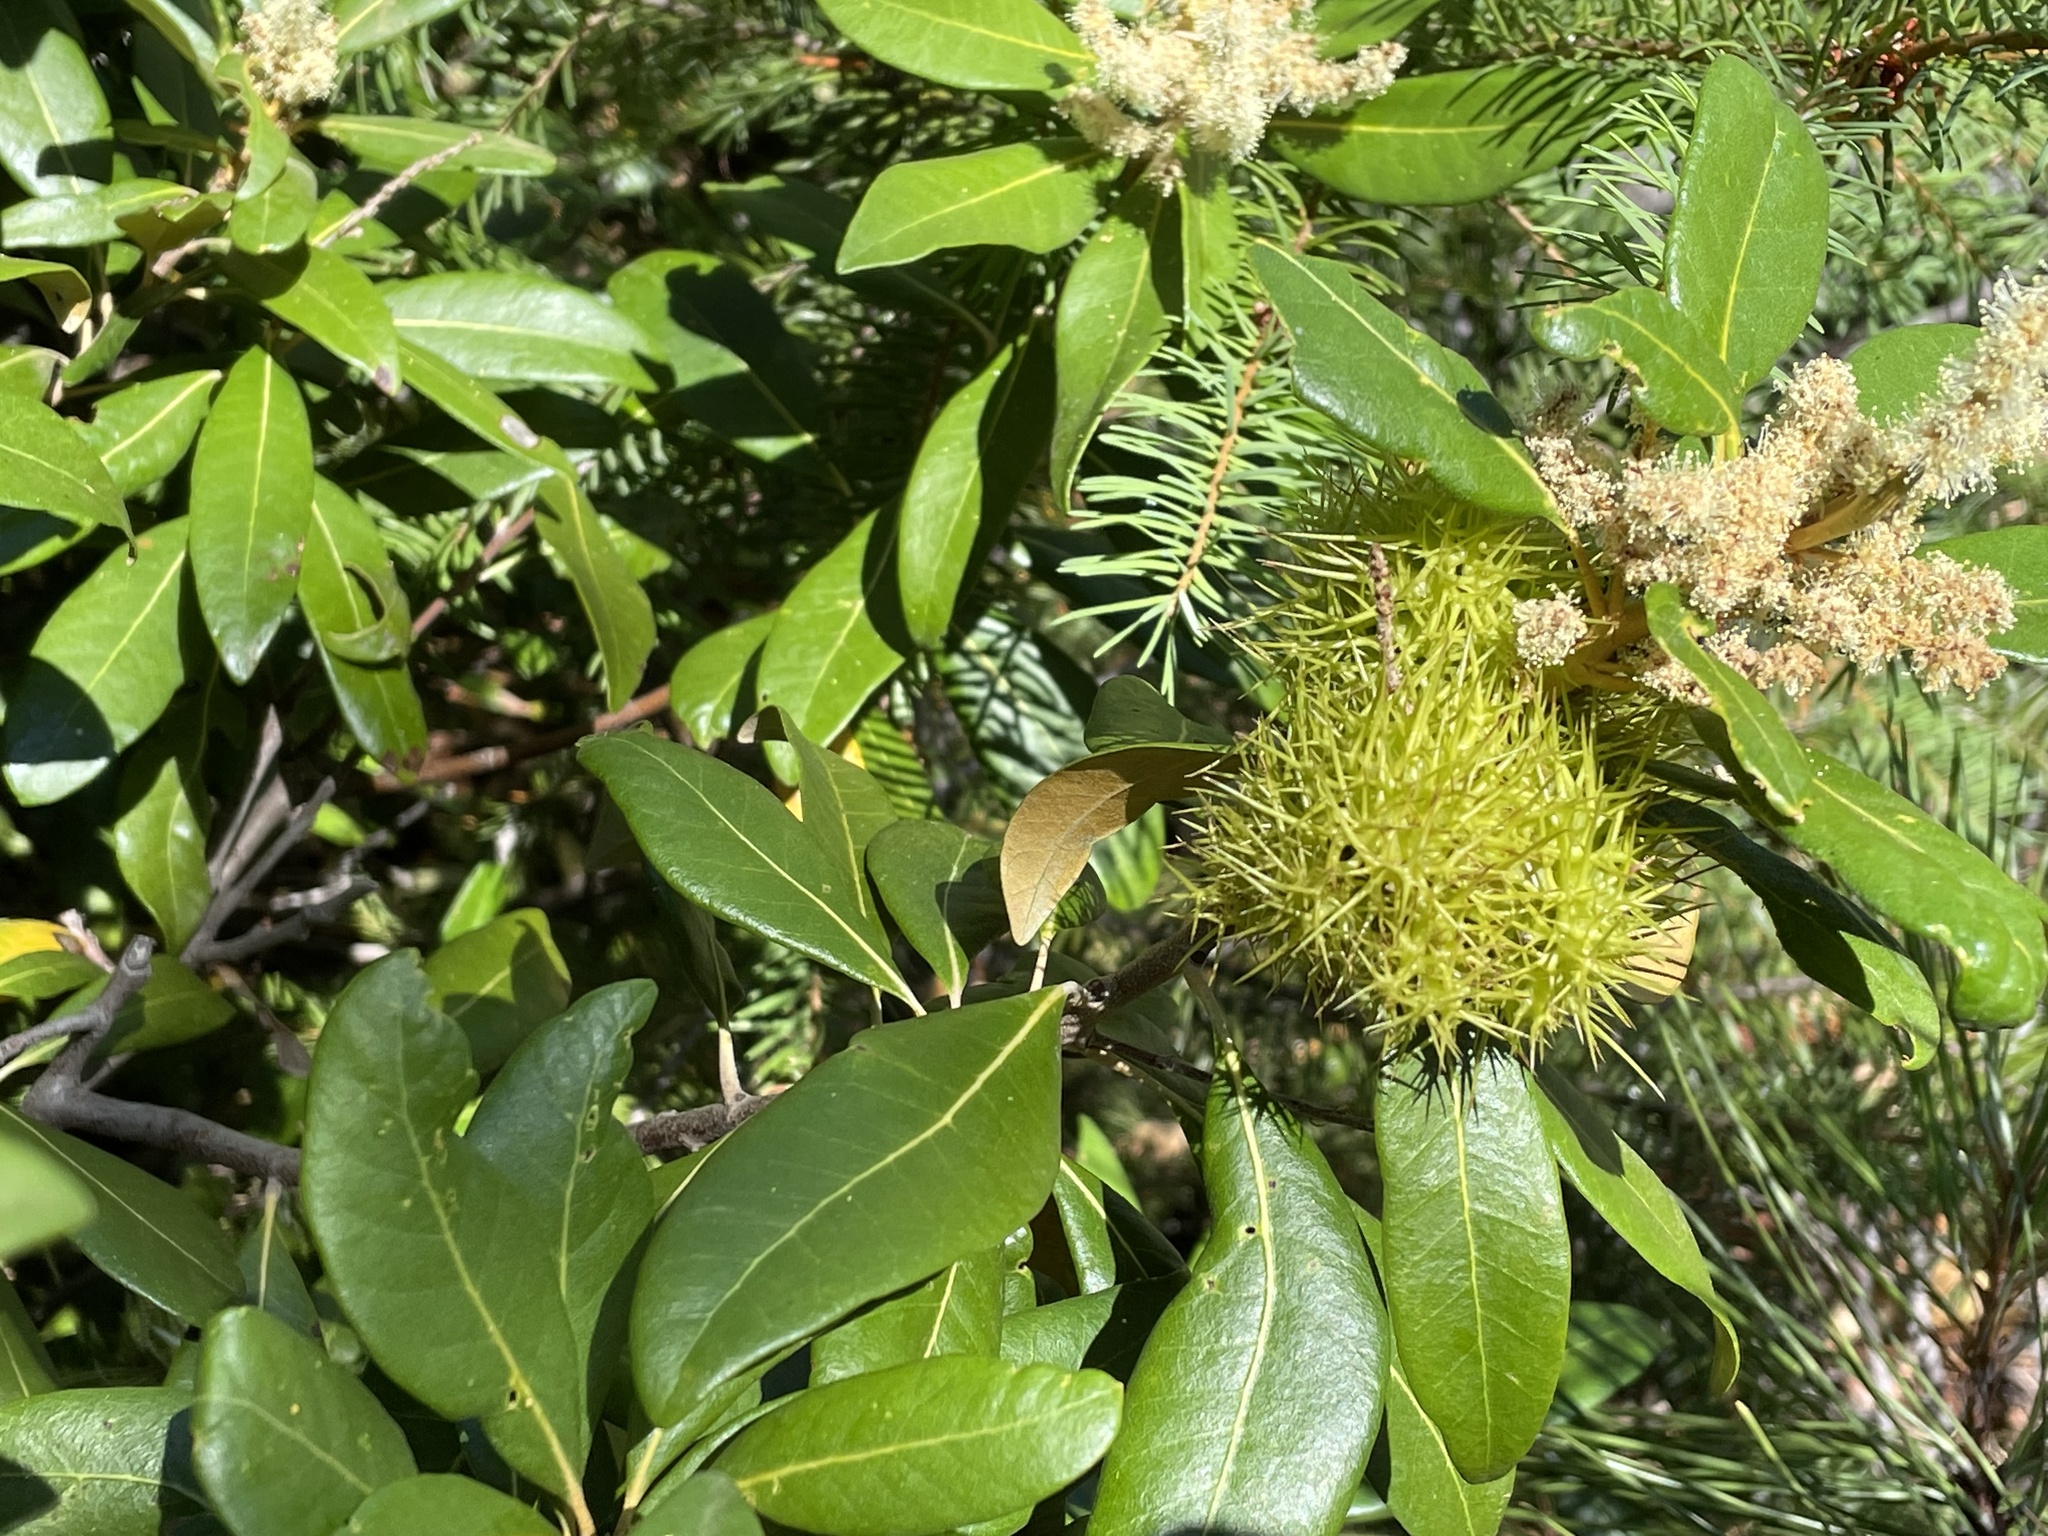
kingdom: Plantae
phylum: Tracheophyta
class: Magnoliopsida
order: Fagales
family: Fagaceae
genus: Chrysolepis
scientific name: Chrysolepis chrysophylla
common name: Giant chinquapin
